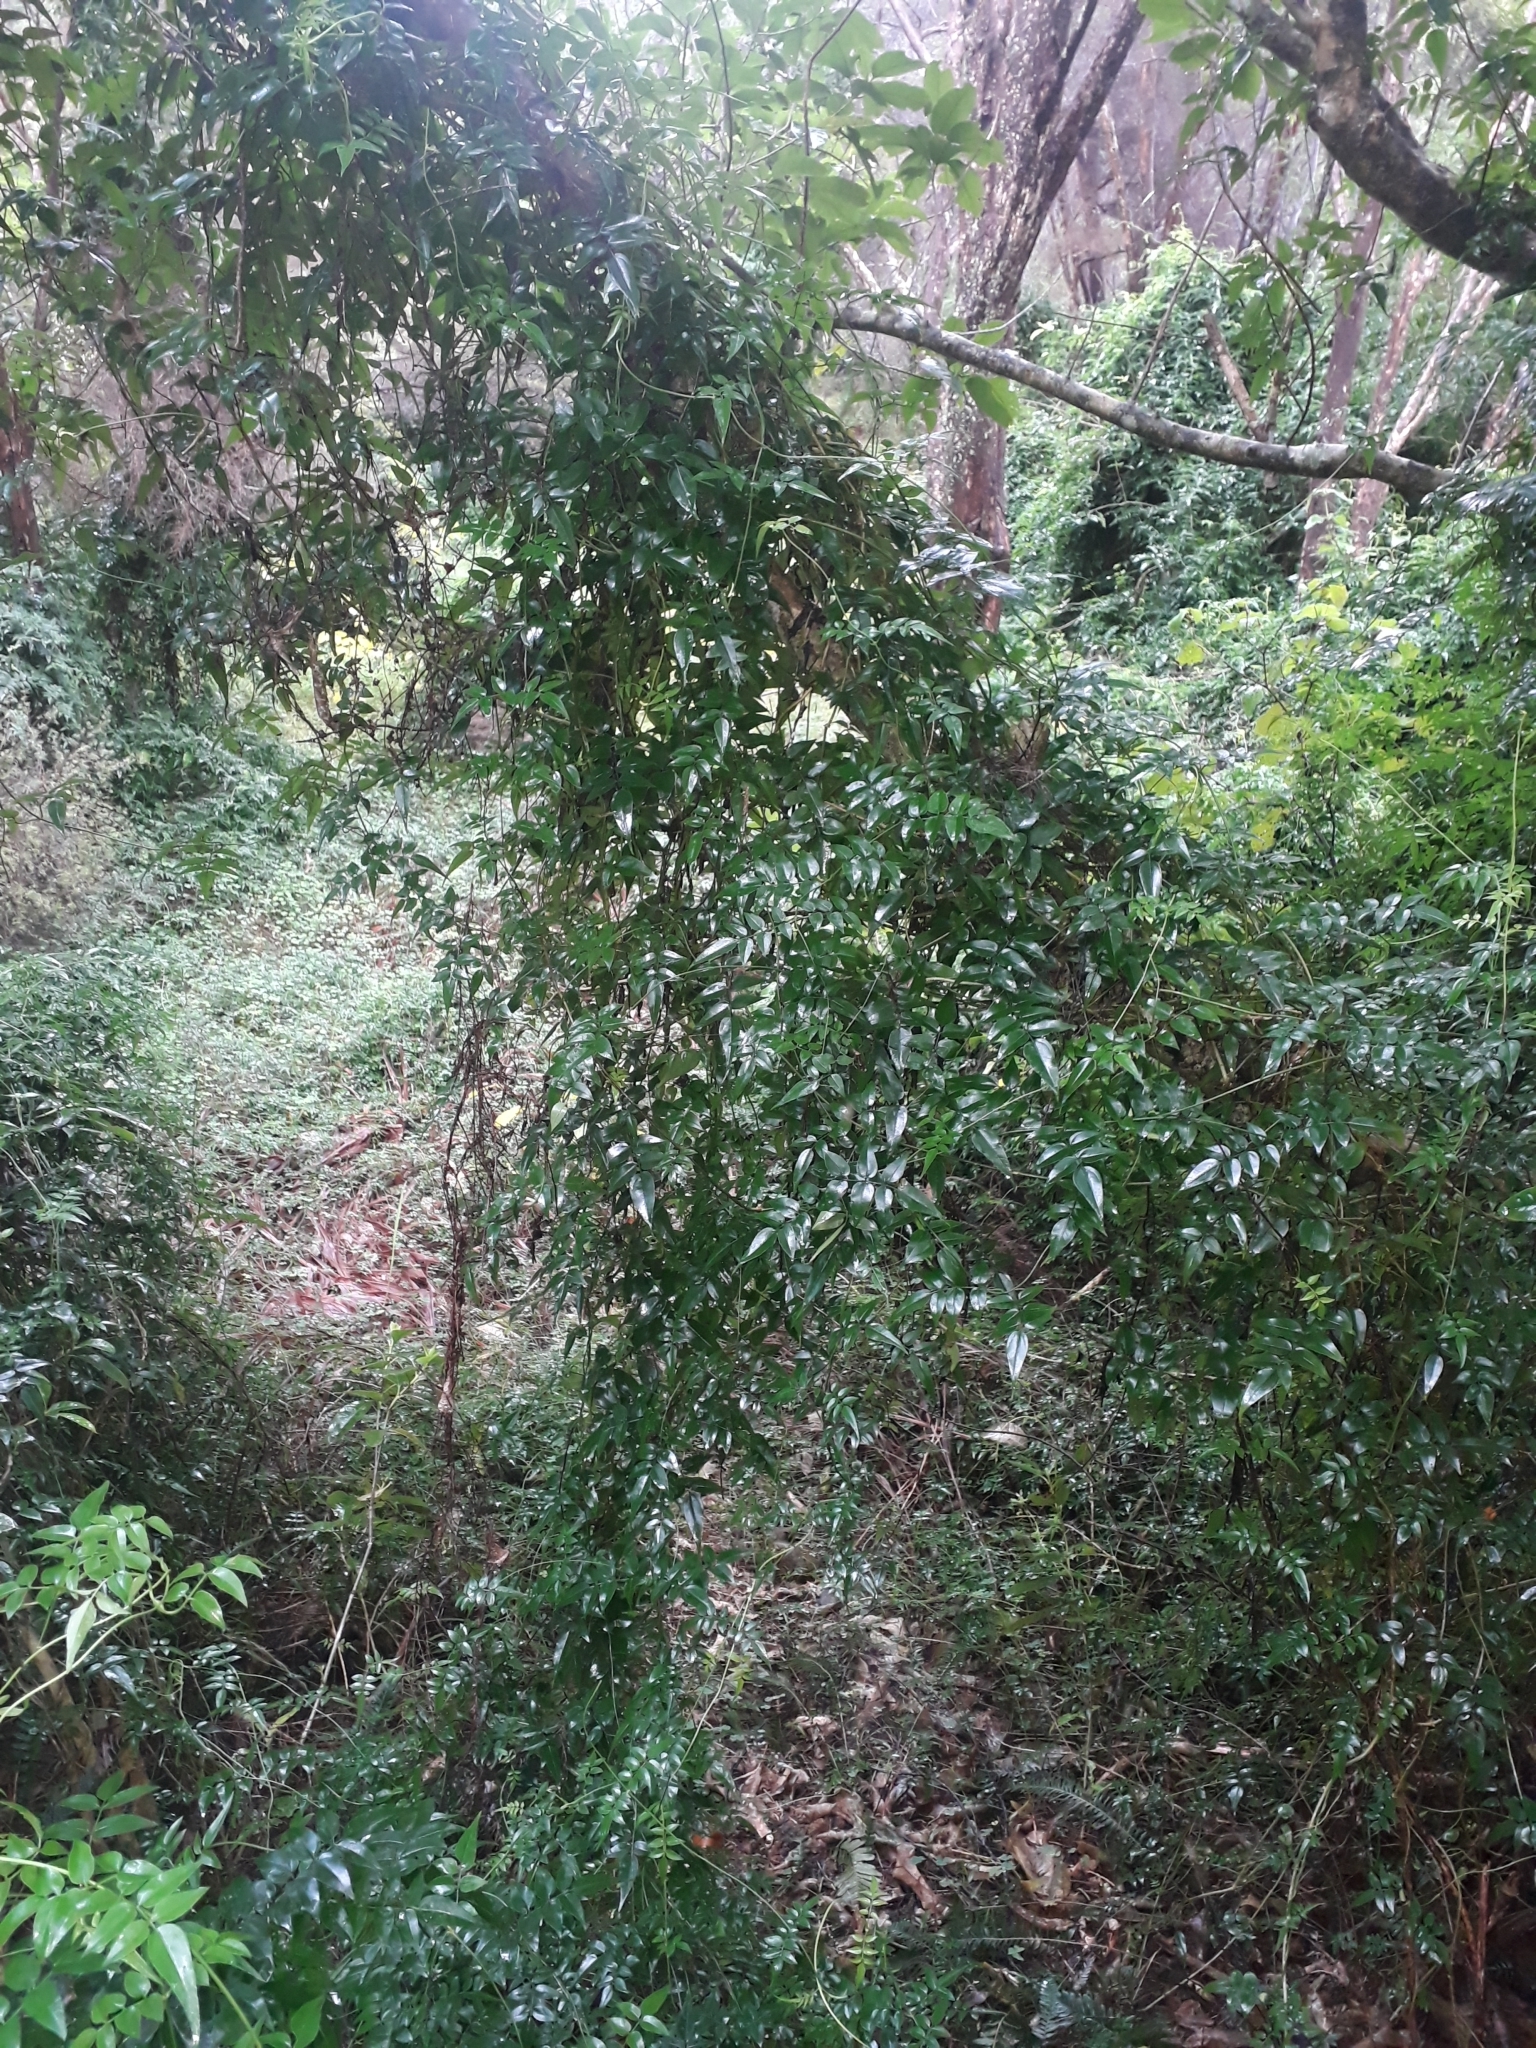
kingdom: Plantae
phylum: Tracheophyta
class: Magnoliopsida
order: Lamiales
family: Oleaceae
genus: Jasminum
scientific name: Jasminum polyanthum
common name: Pink jasmine
